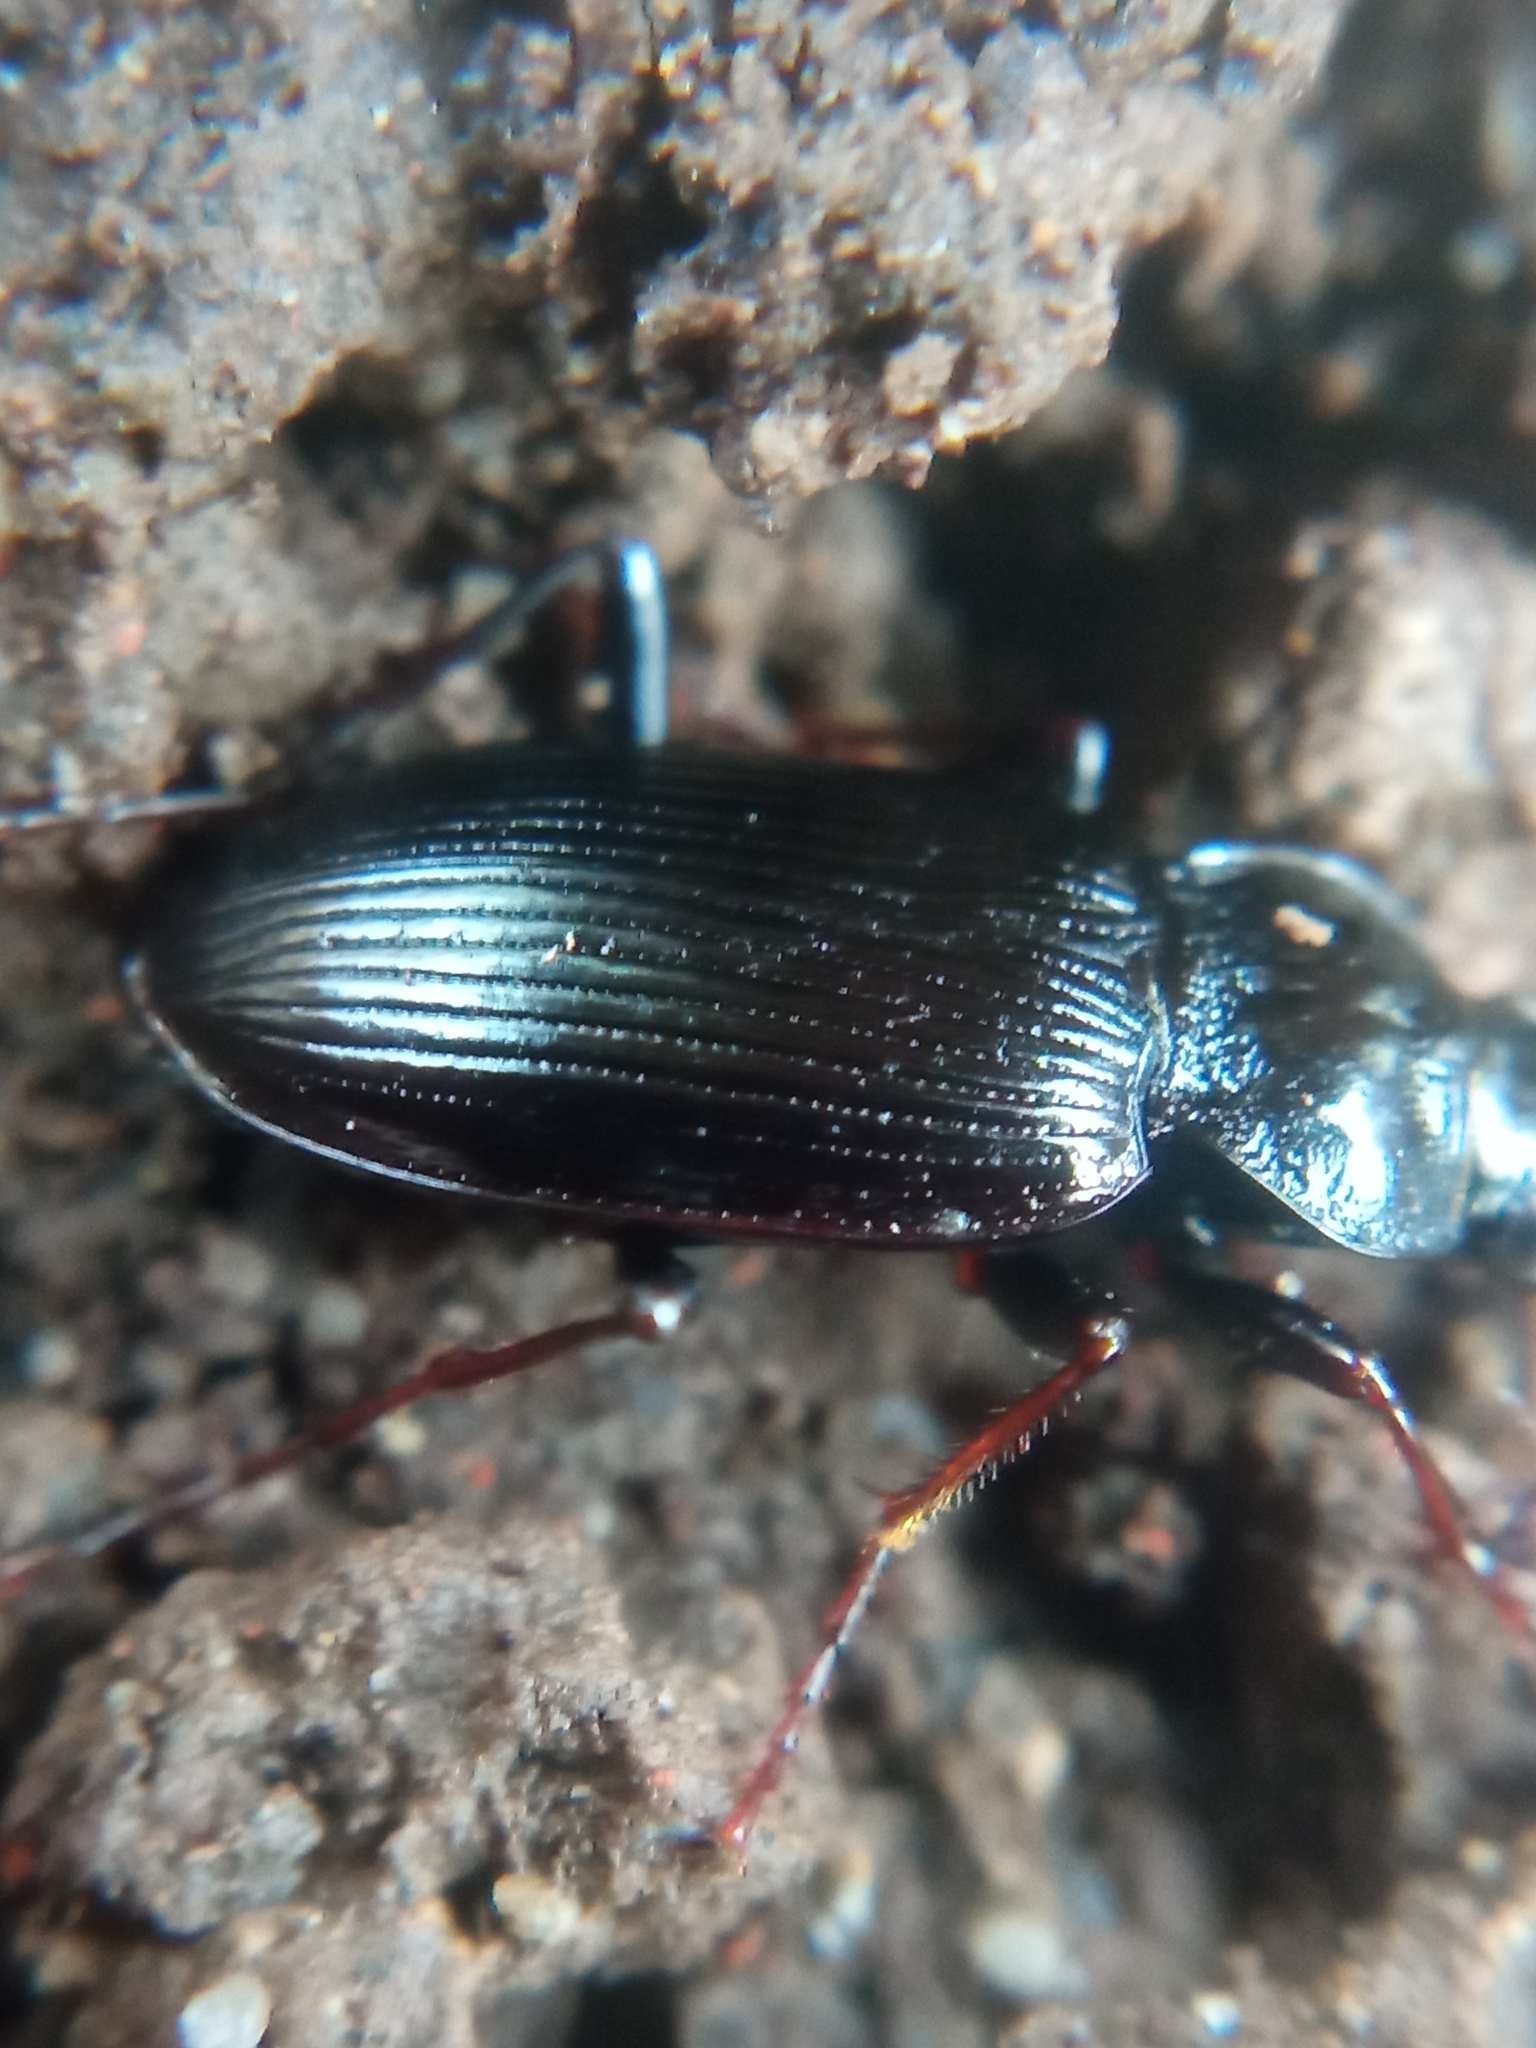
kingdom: Animalia
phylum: Arthropoda
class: Insecta
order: Coleoptera
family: Carabidae
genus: Nebria
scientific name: Nebria brevicollis
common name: Short-necked gazelle beetle
